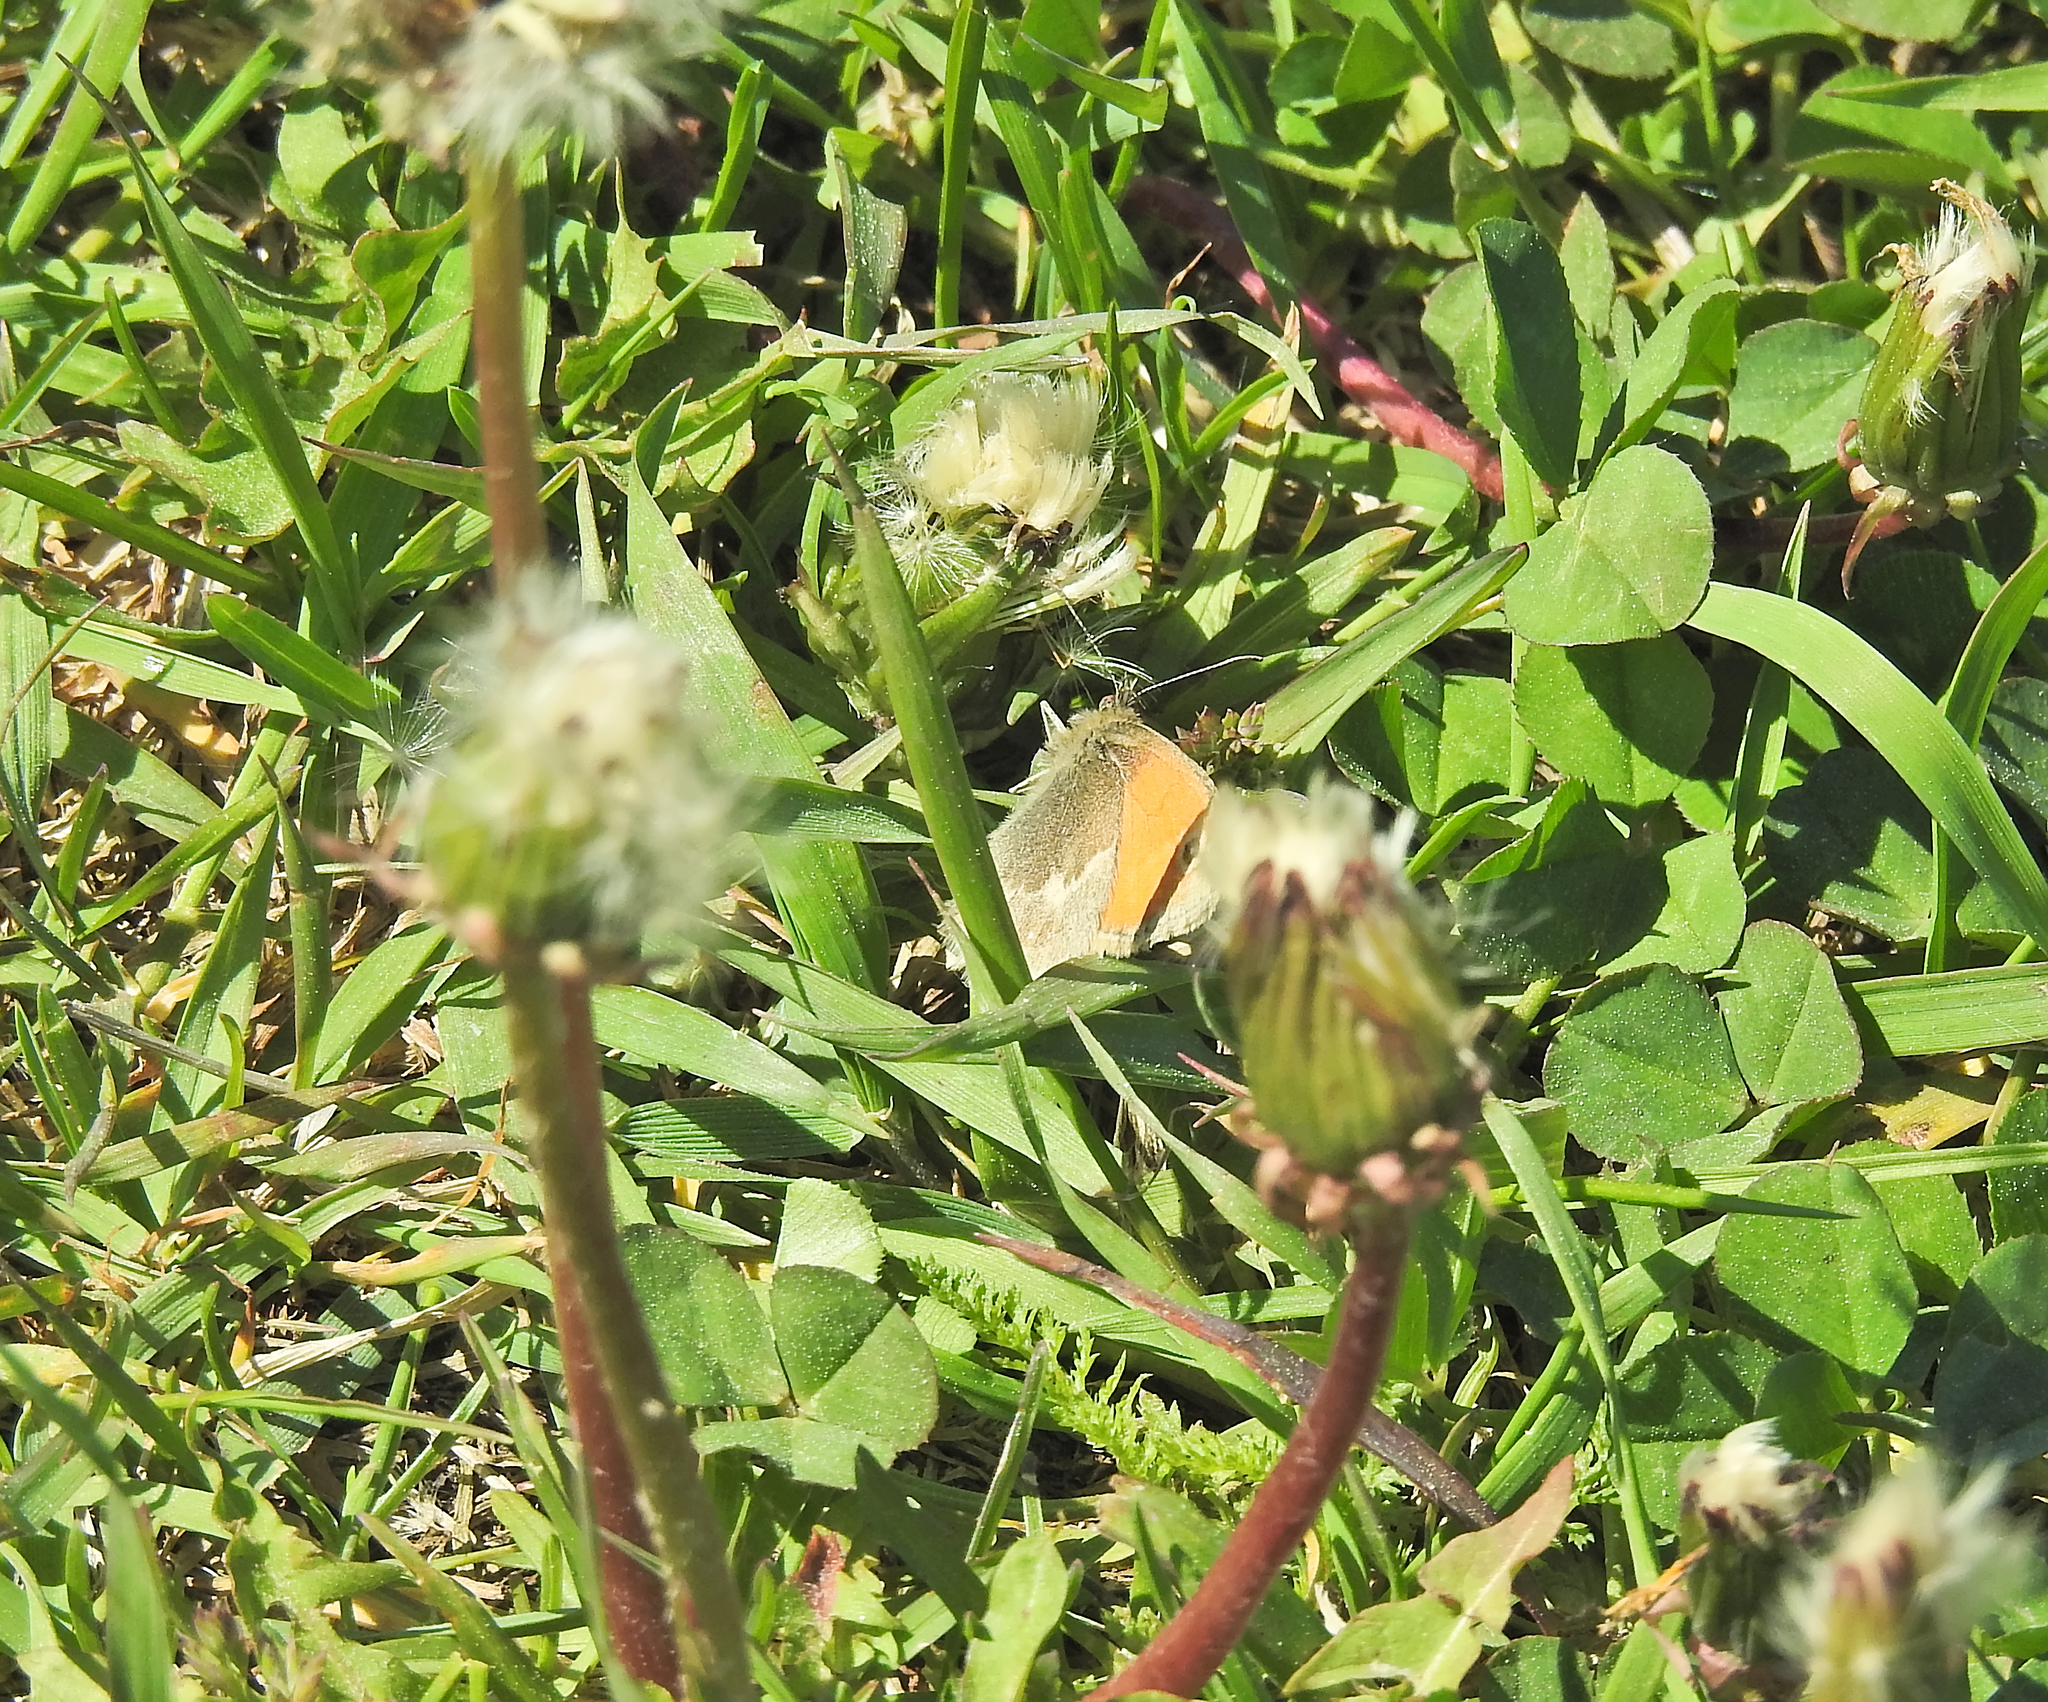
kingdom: Animalia
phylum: Arthropoda
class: Insecta
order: Lepidoptera
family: Nymphalidae
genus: Coenonympha
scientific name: Coenonympha pamphilus
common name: Small heath
